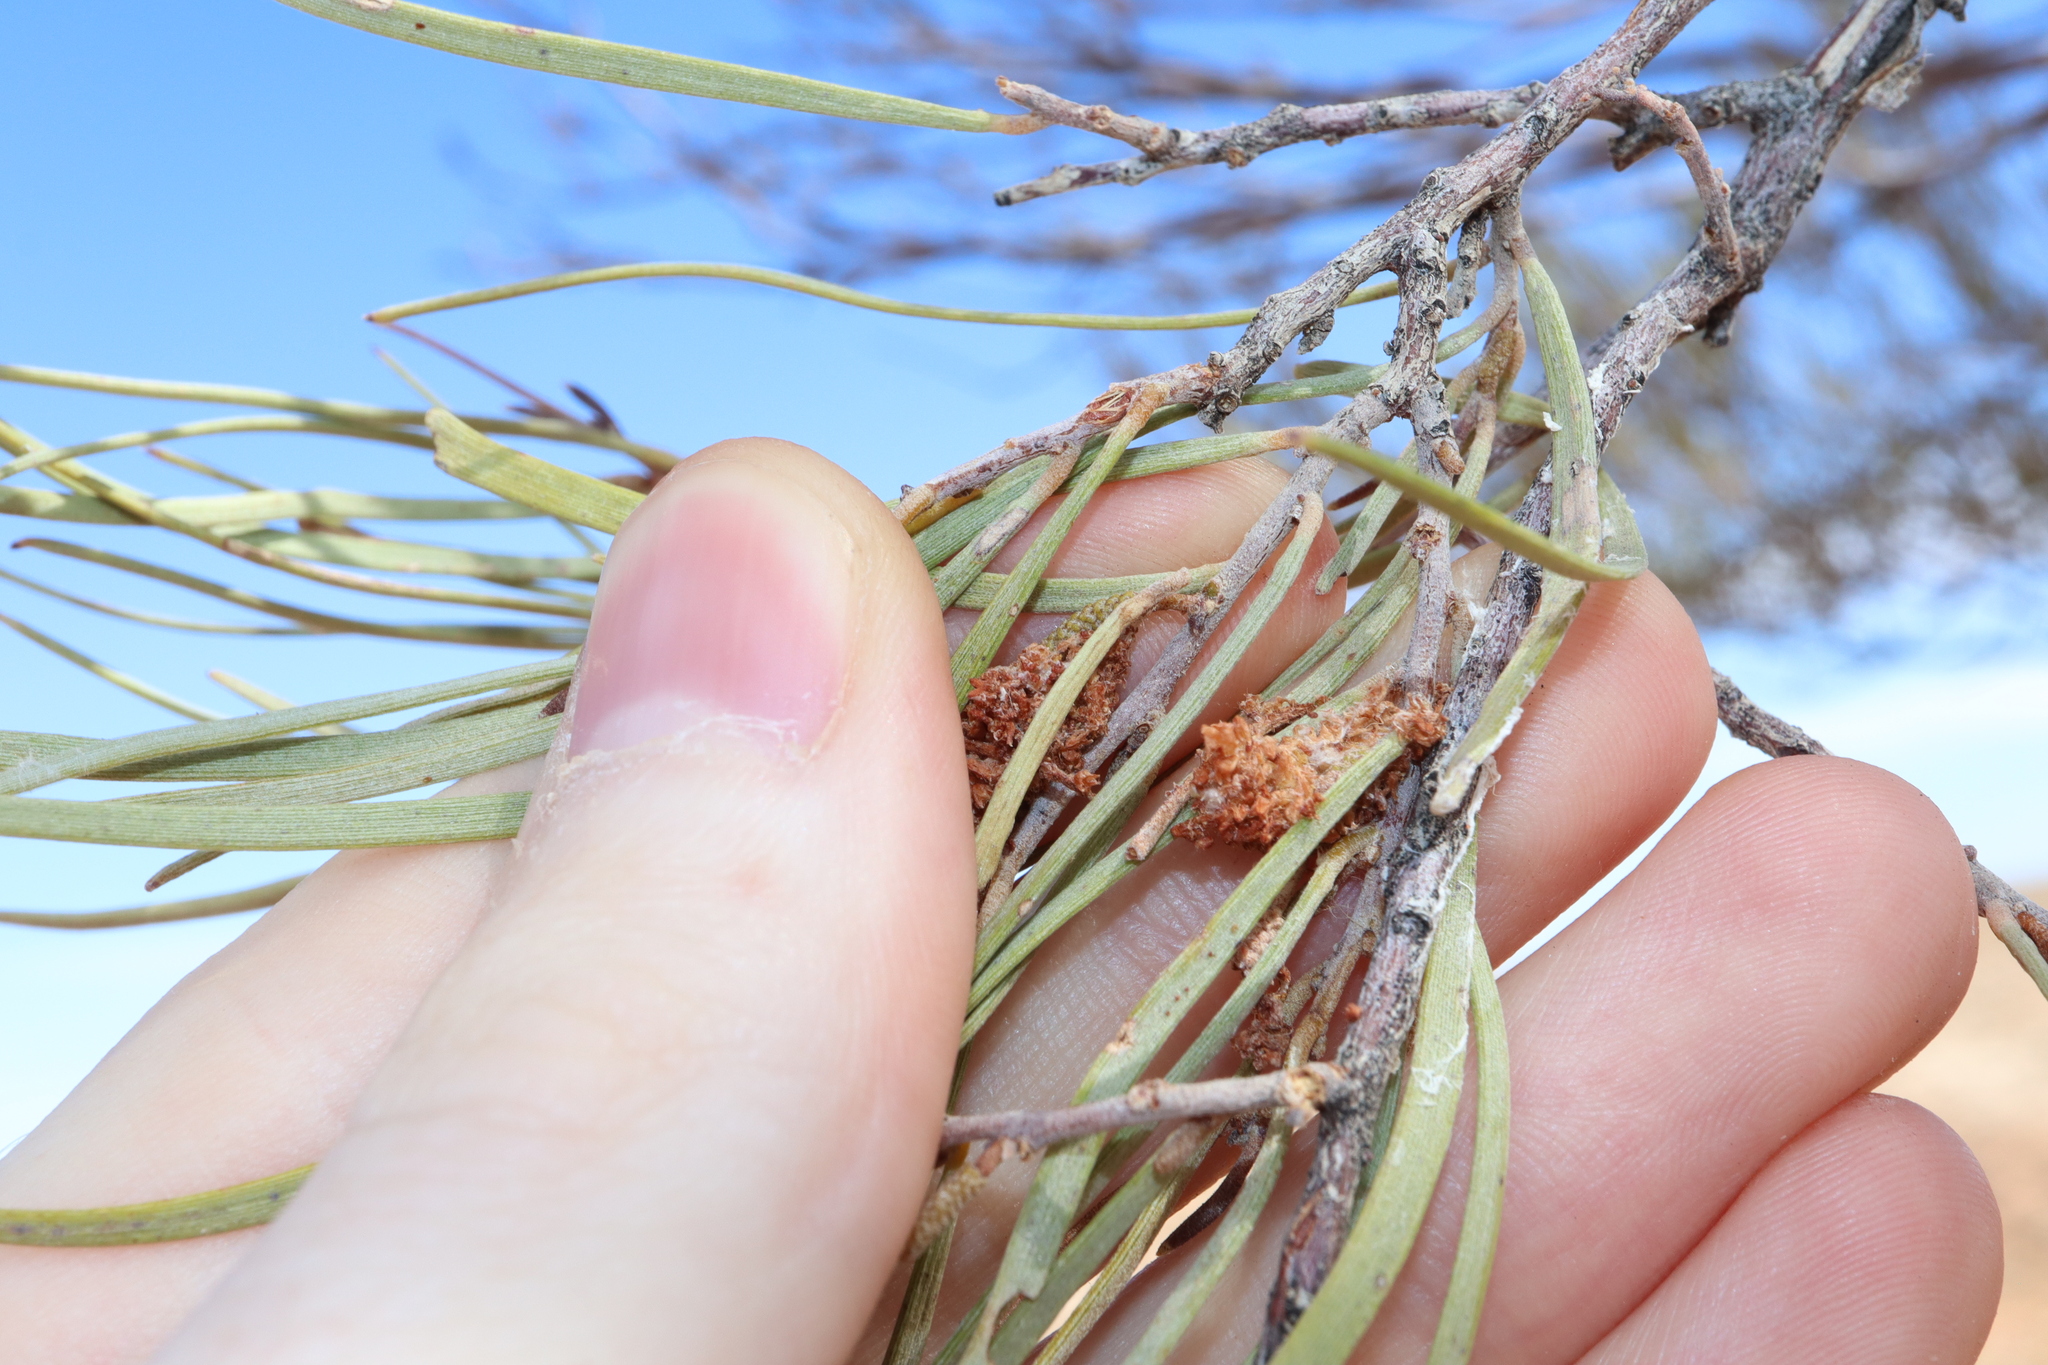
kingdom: Plantae
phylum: Tracheophyta
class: Magnoliopsida
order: Fabales
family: Fabaceae
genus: Acacia
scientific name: Acacia aneura
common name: Mulga
